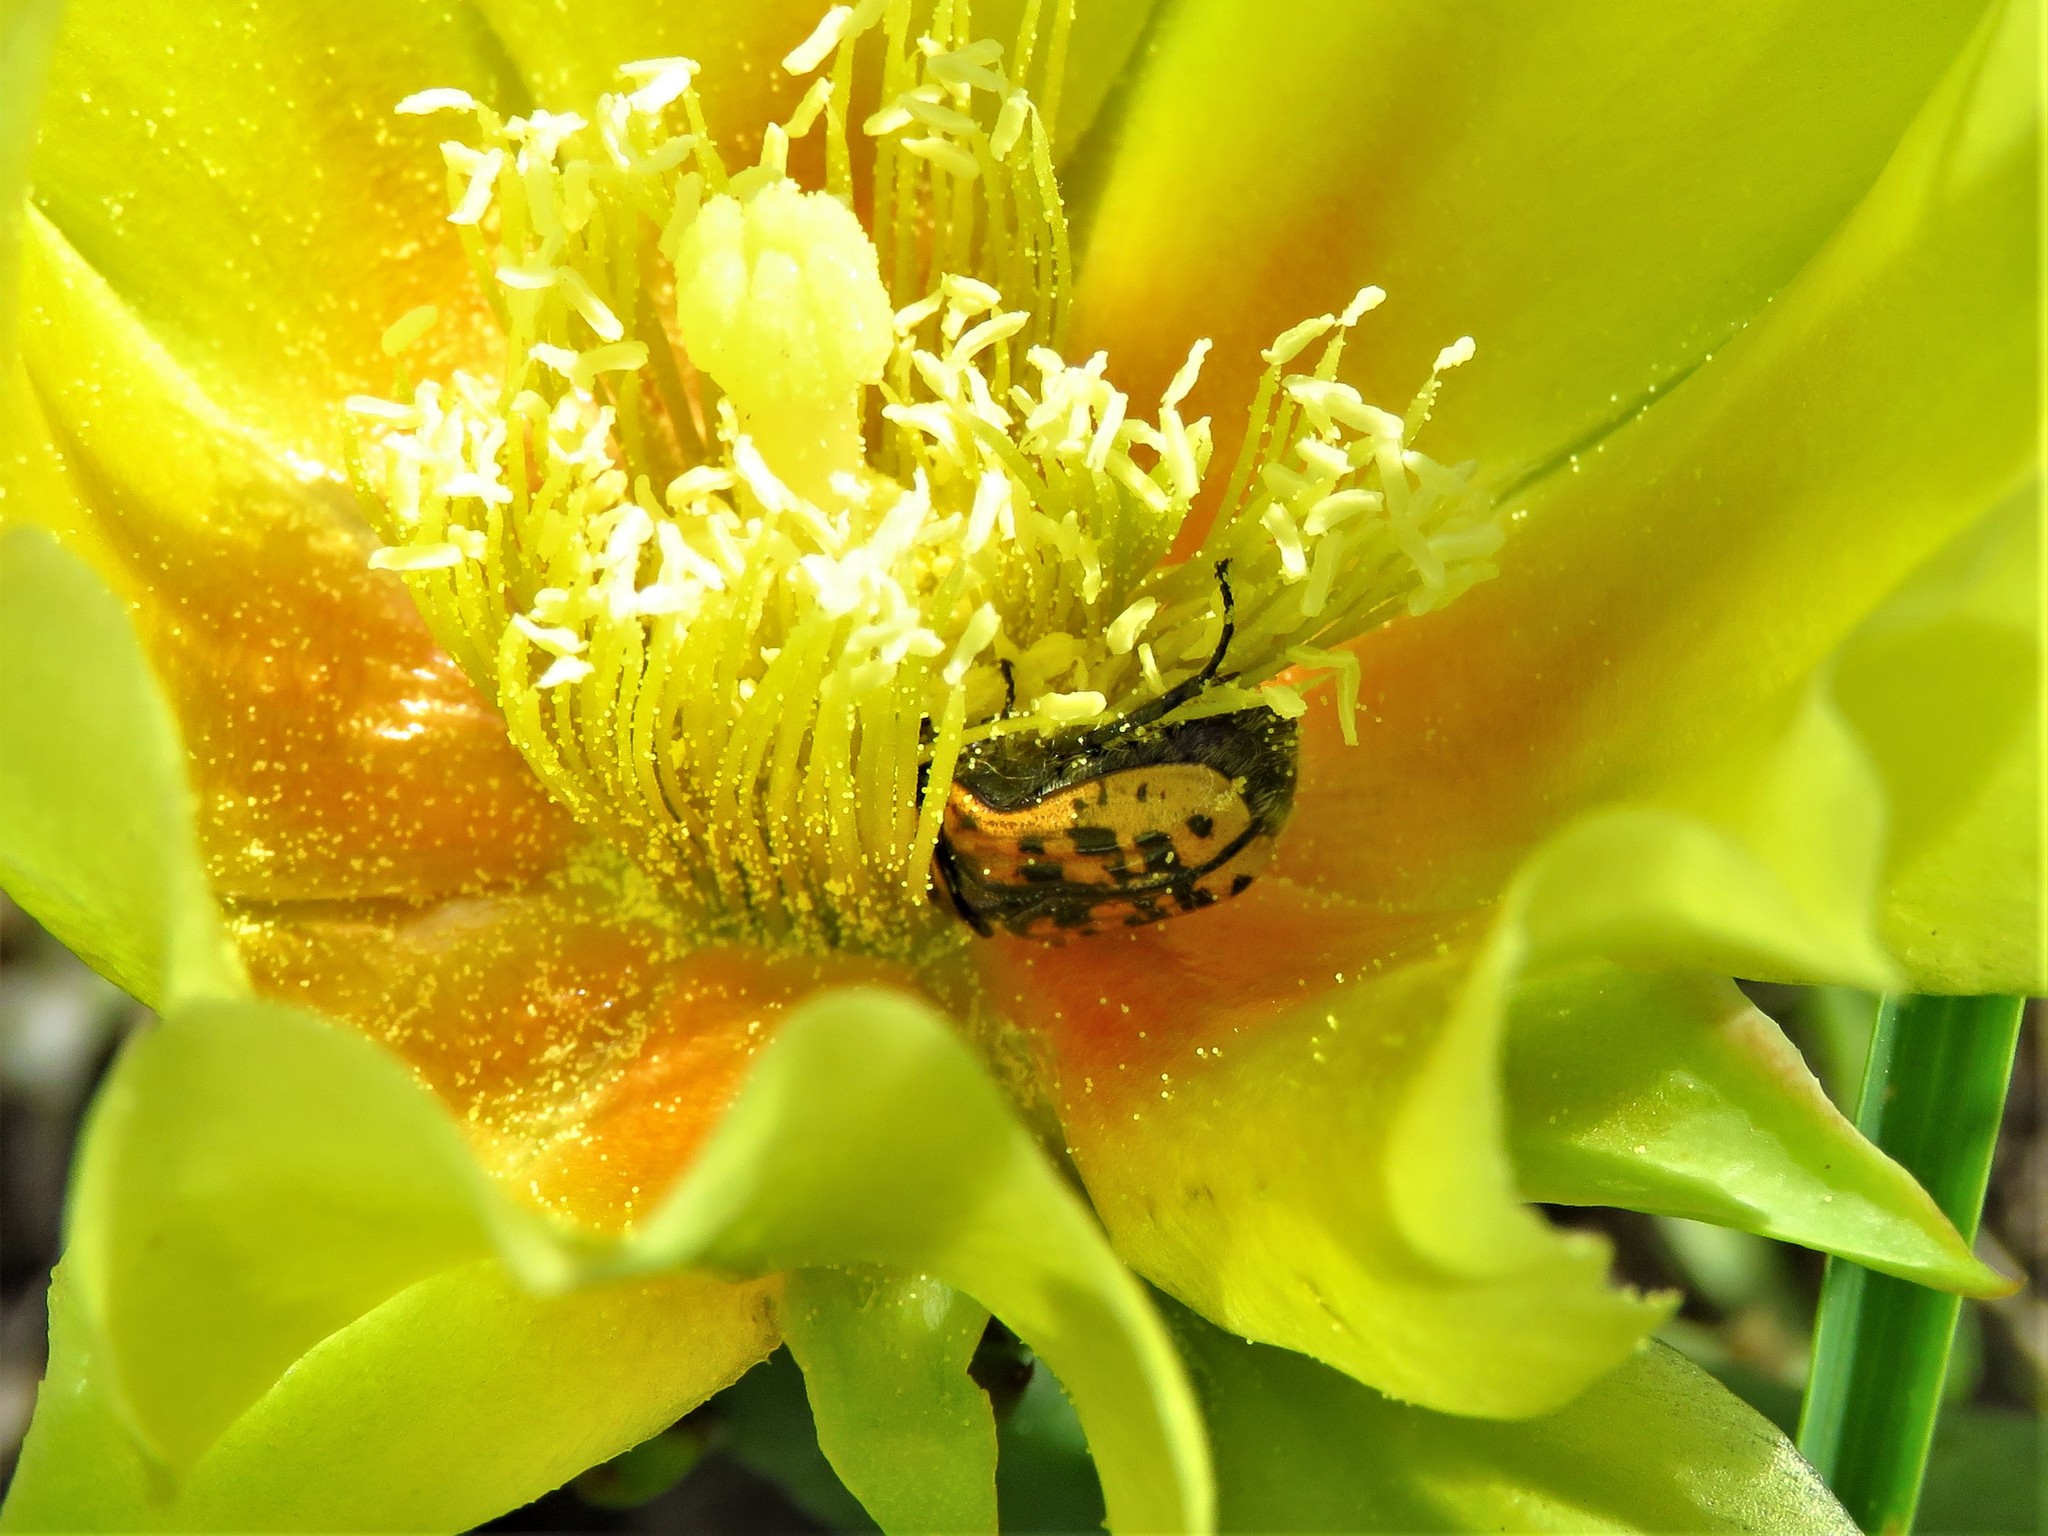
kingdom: Animalia
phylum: Arthropoda
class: Insecta
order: Coleoptera
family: Scarabaeidae
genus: Euphoria
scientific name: Euphoria kernii
